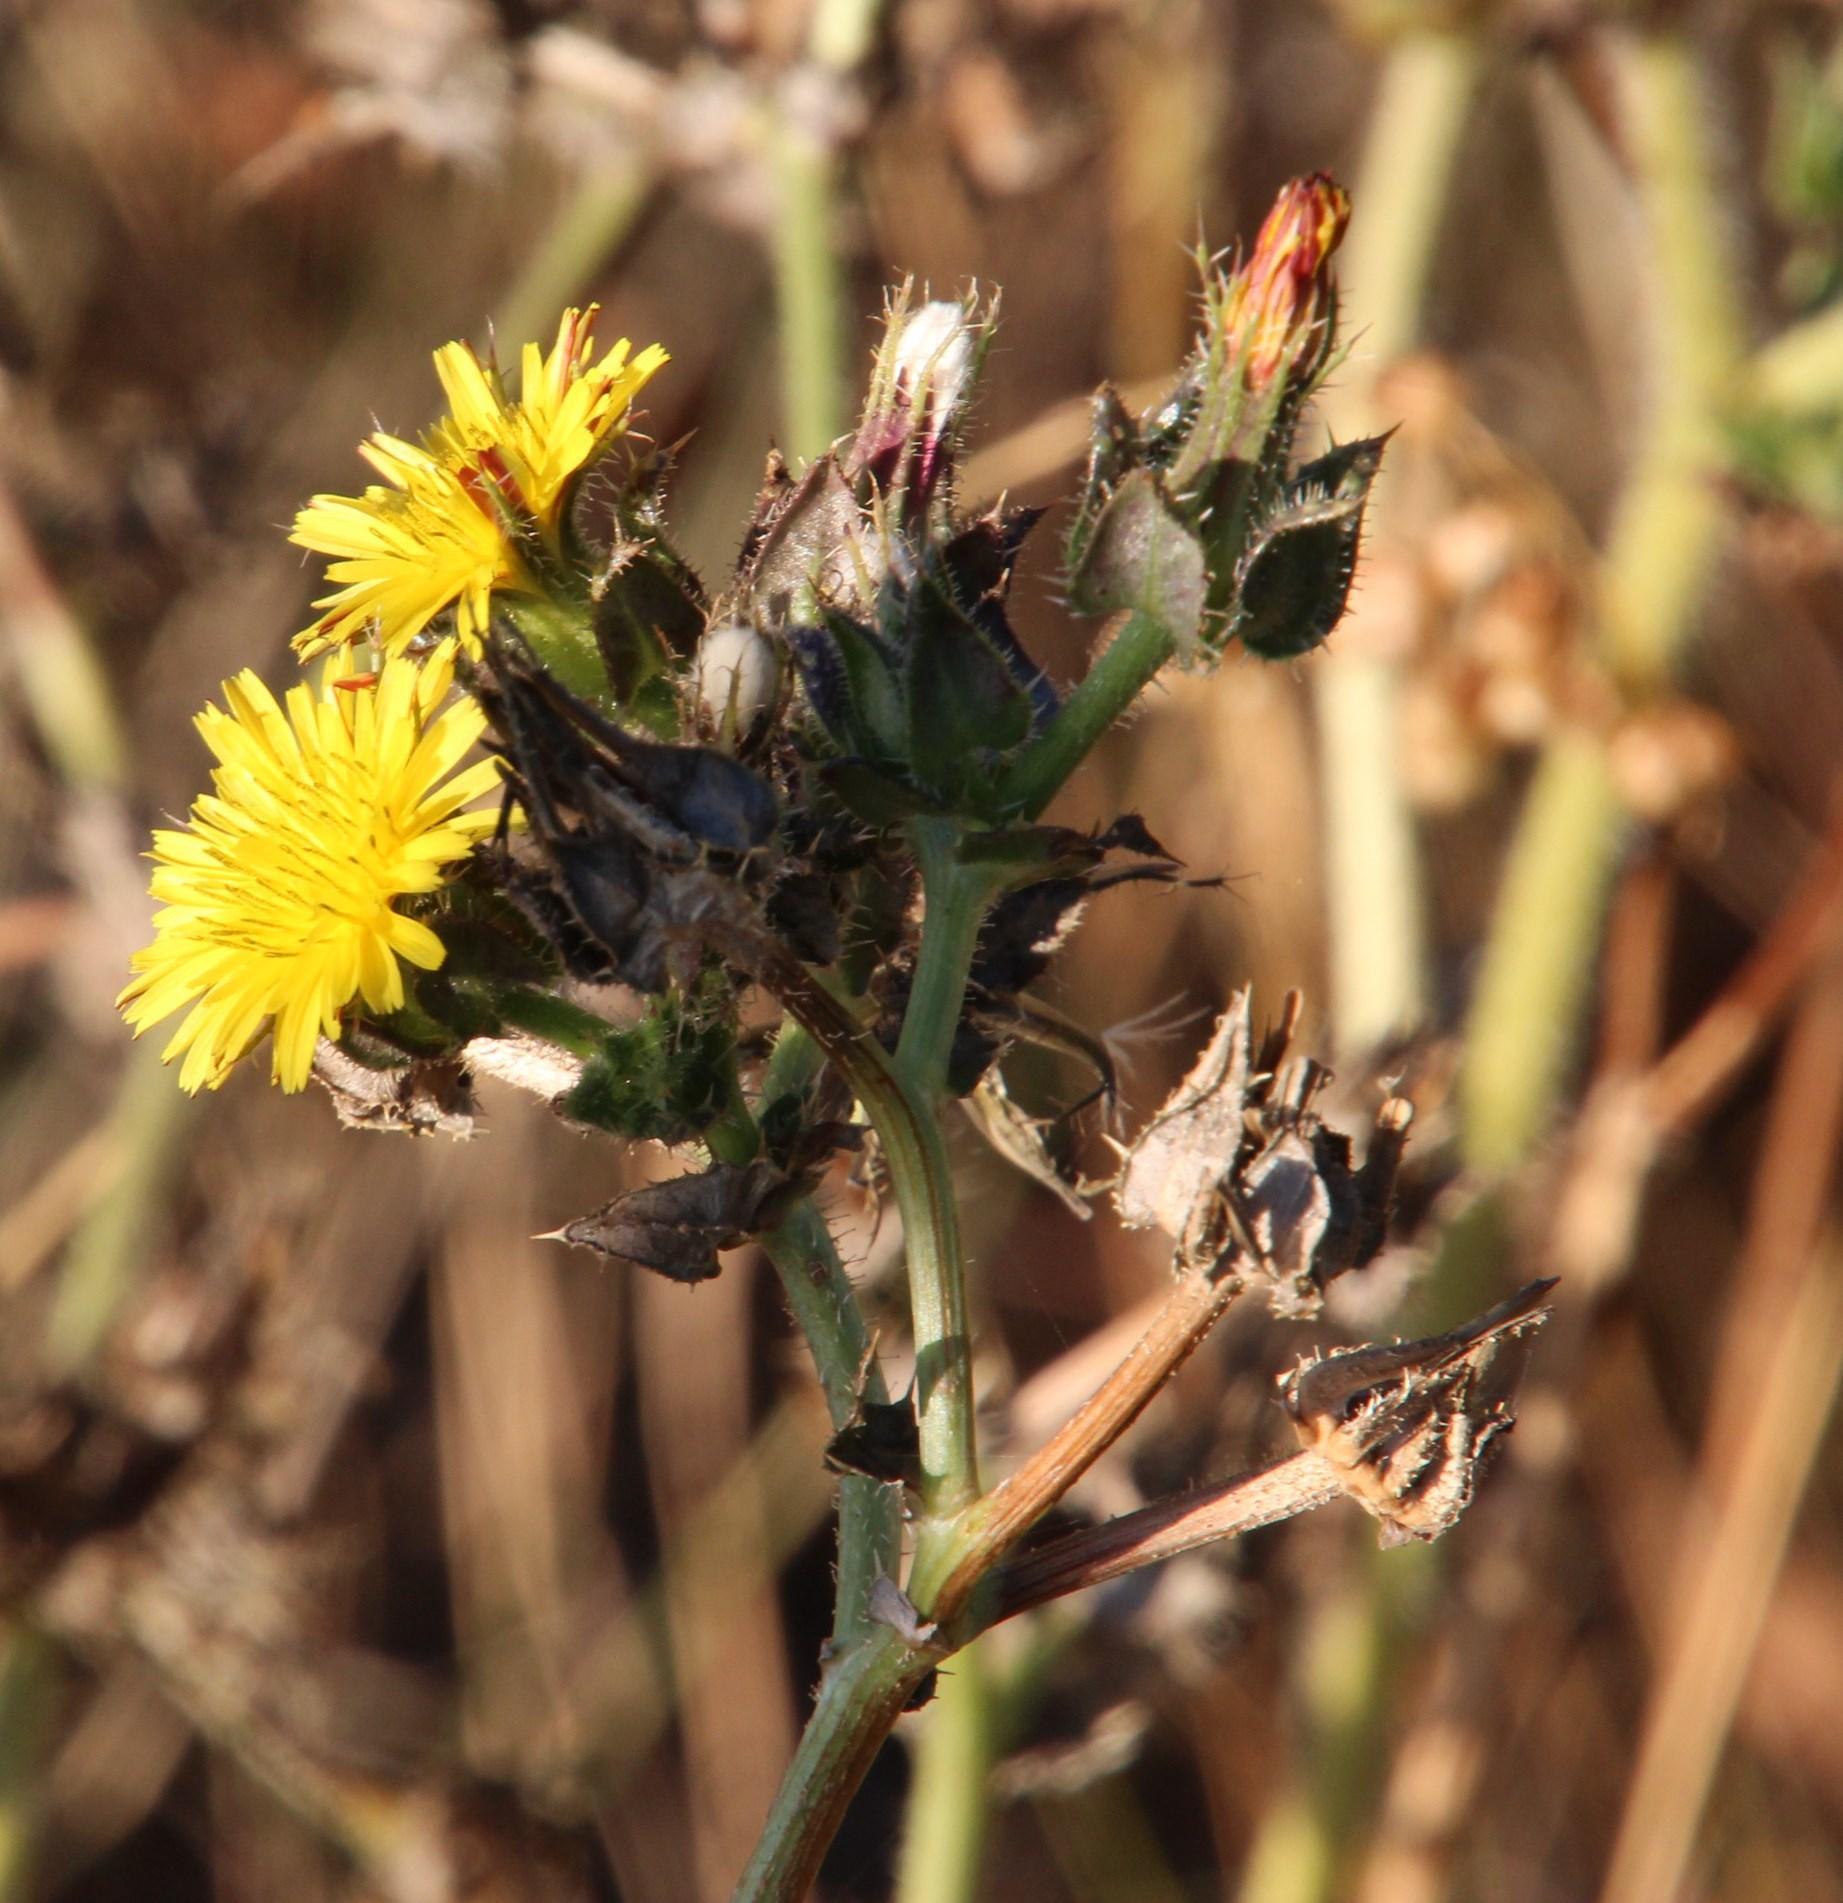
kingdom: Plantae
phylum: Tracheophyta
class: Magnoliopsida
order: Asterales
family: Asteraceae
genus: Helminthotheca
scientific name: Helminthotheca echioides
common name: Ox-tongue
